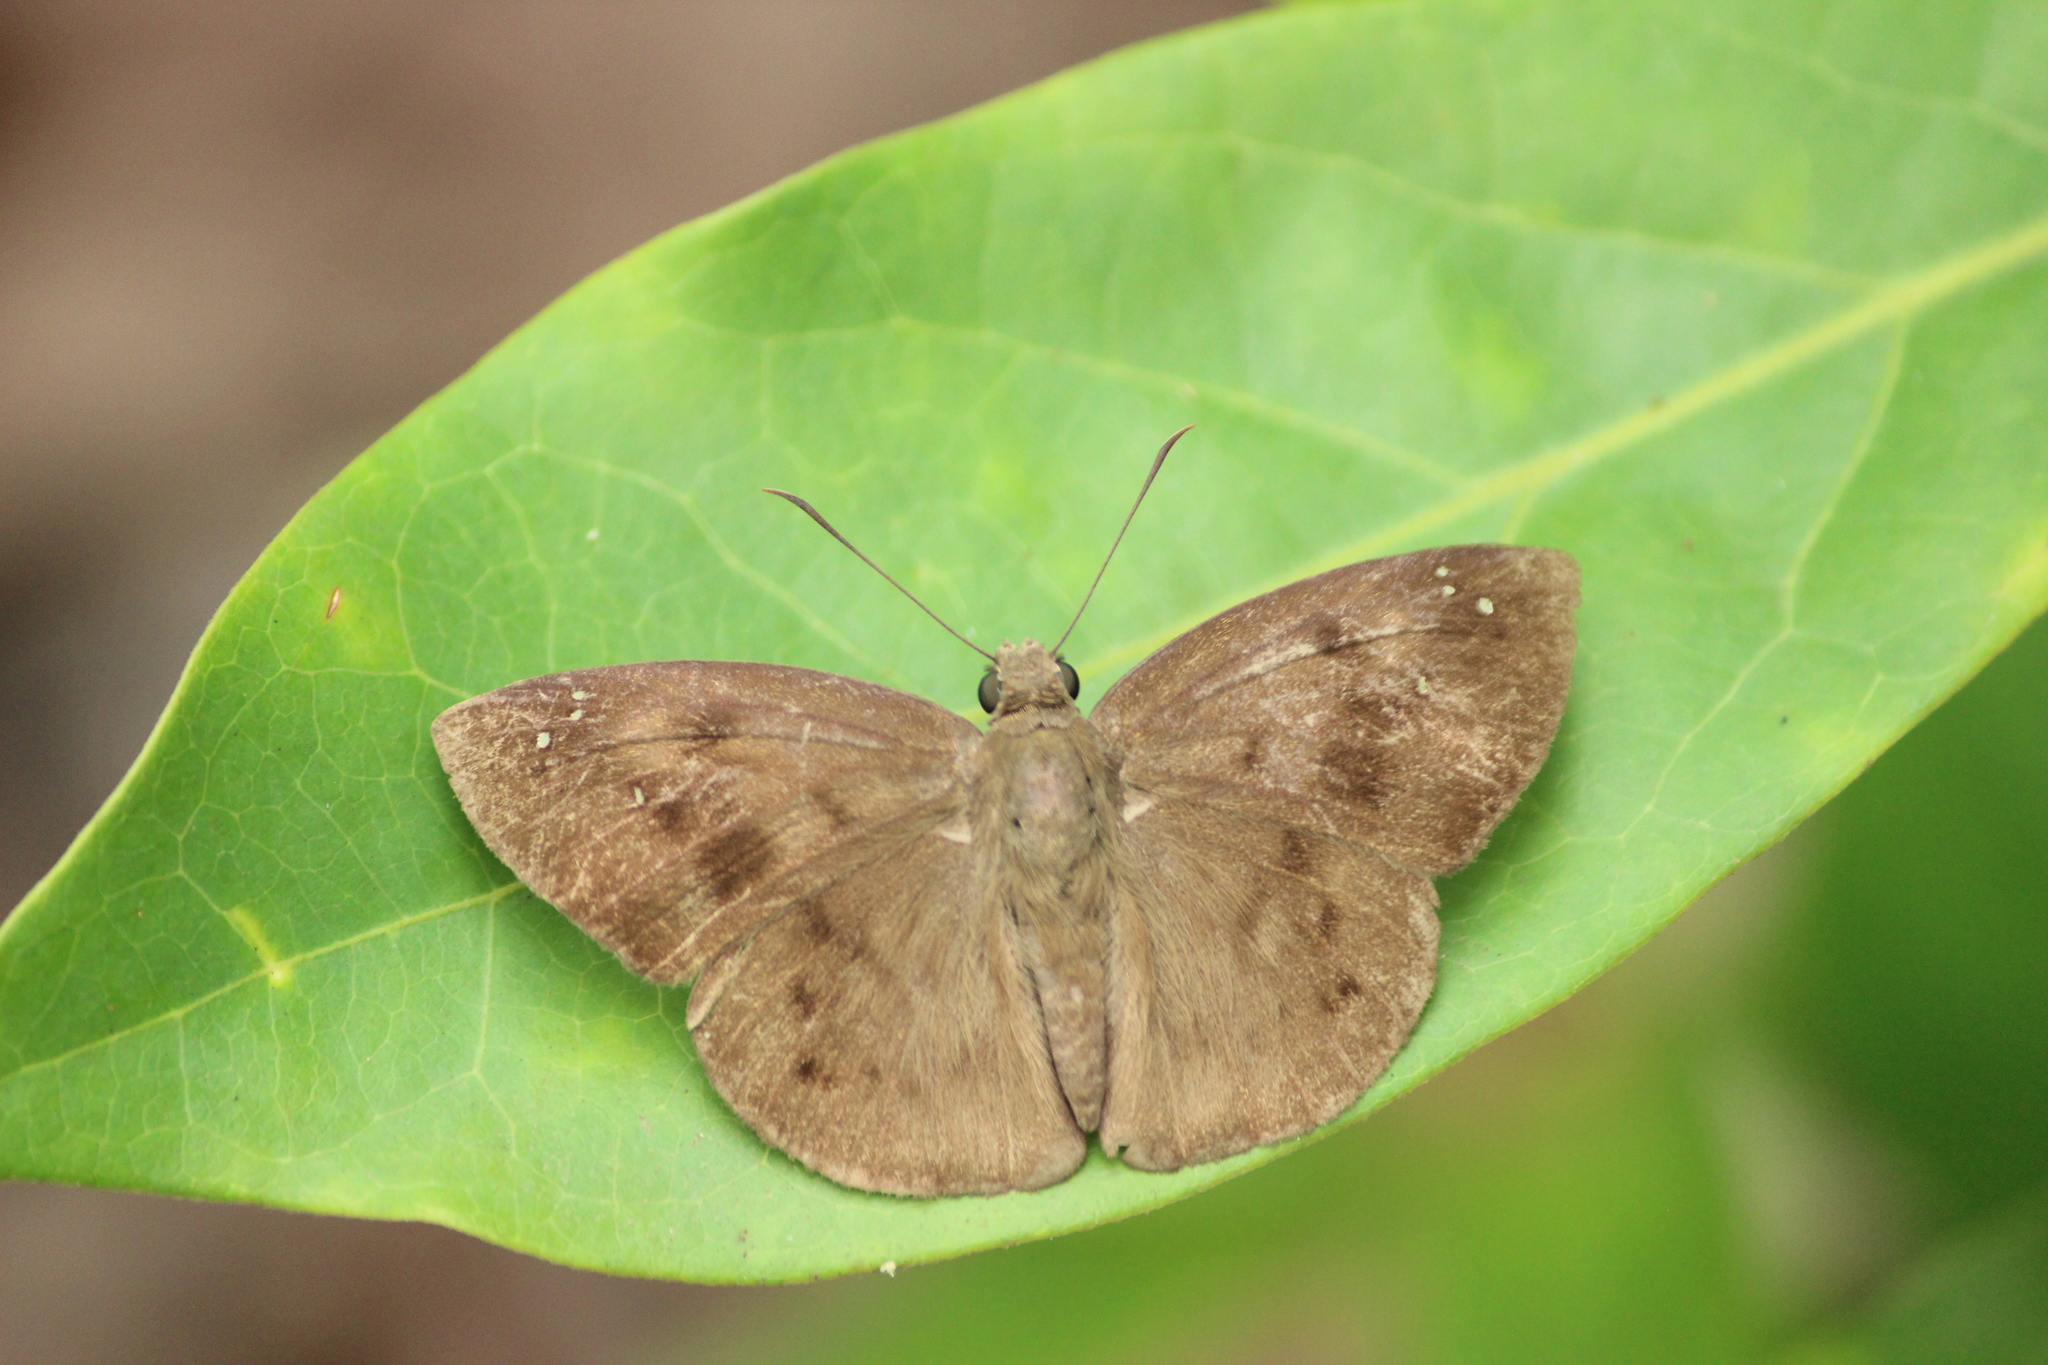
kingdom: Animalia
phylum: Arthropoda
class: Insecta
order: Lepidoptera
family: Hesperiidae
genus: Tagiades
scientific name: Tagiades japetus
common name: Pied flat
